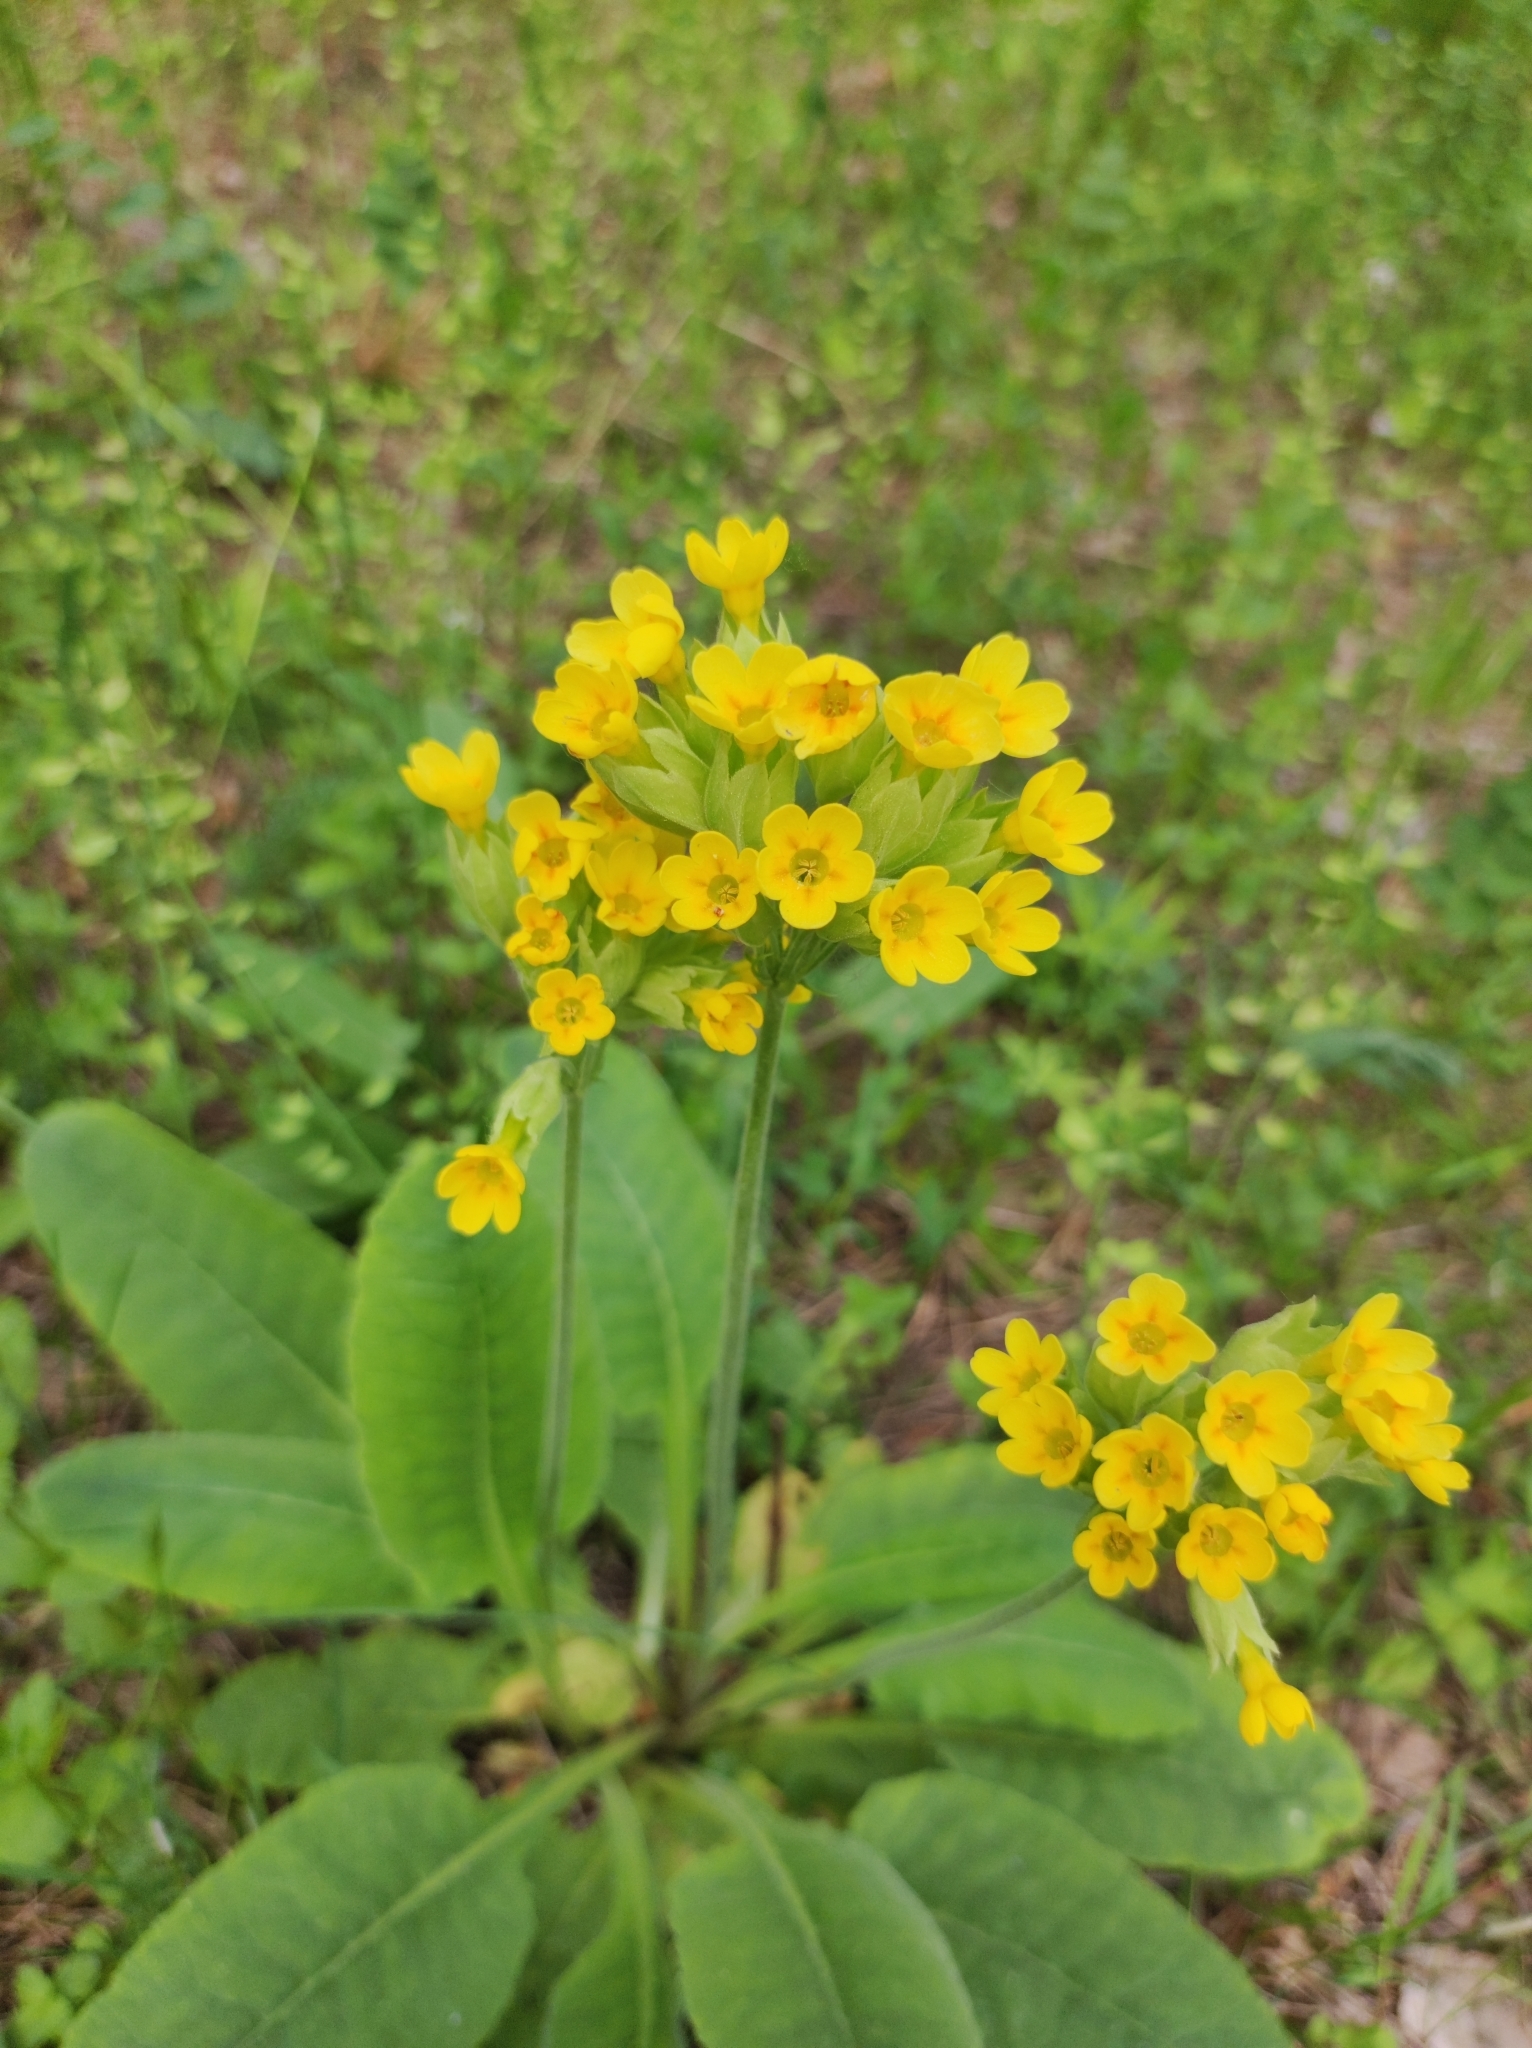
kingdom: Plantae
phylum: Tracheophyta
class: Magnoliopsida
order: Ericales
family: Primulaceae
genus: Primula
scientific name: Primula veris
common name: Cowslip
